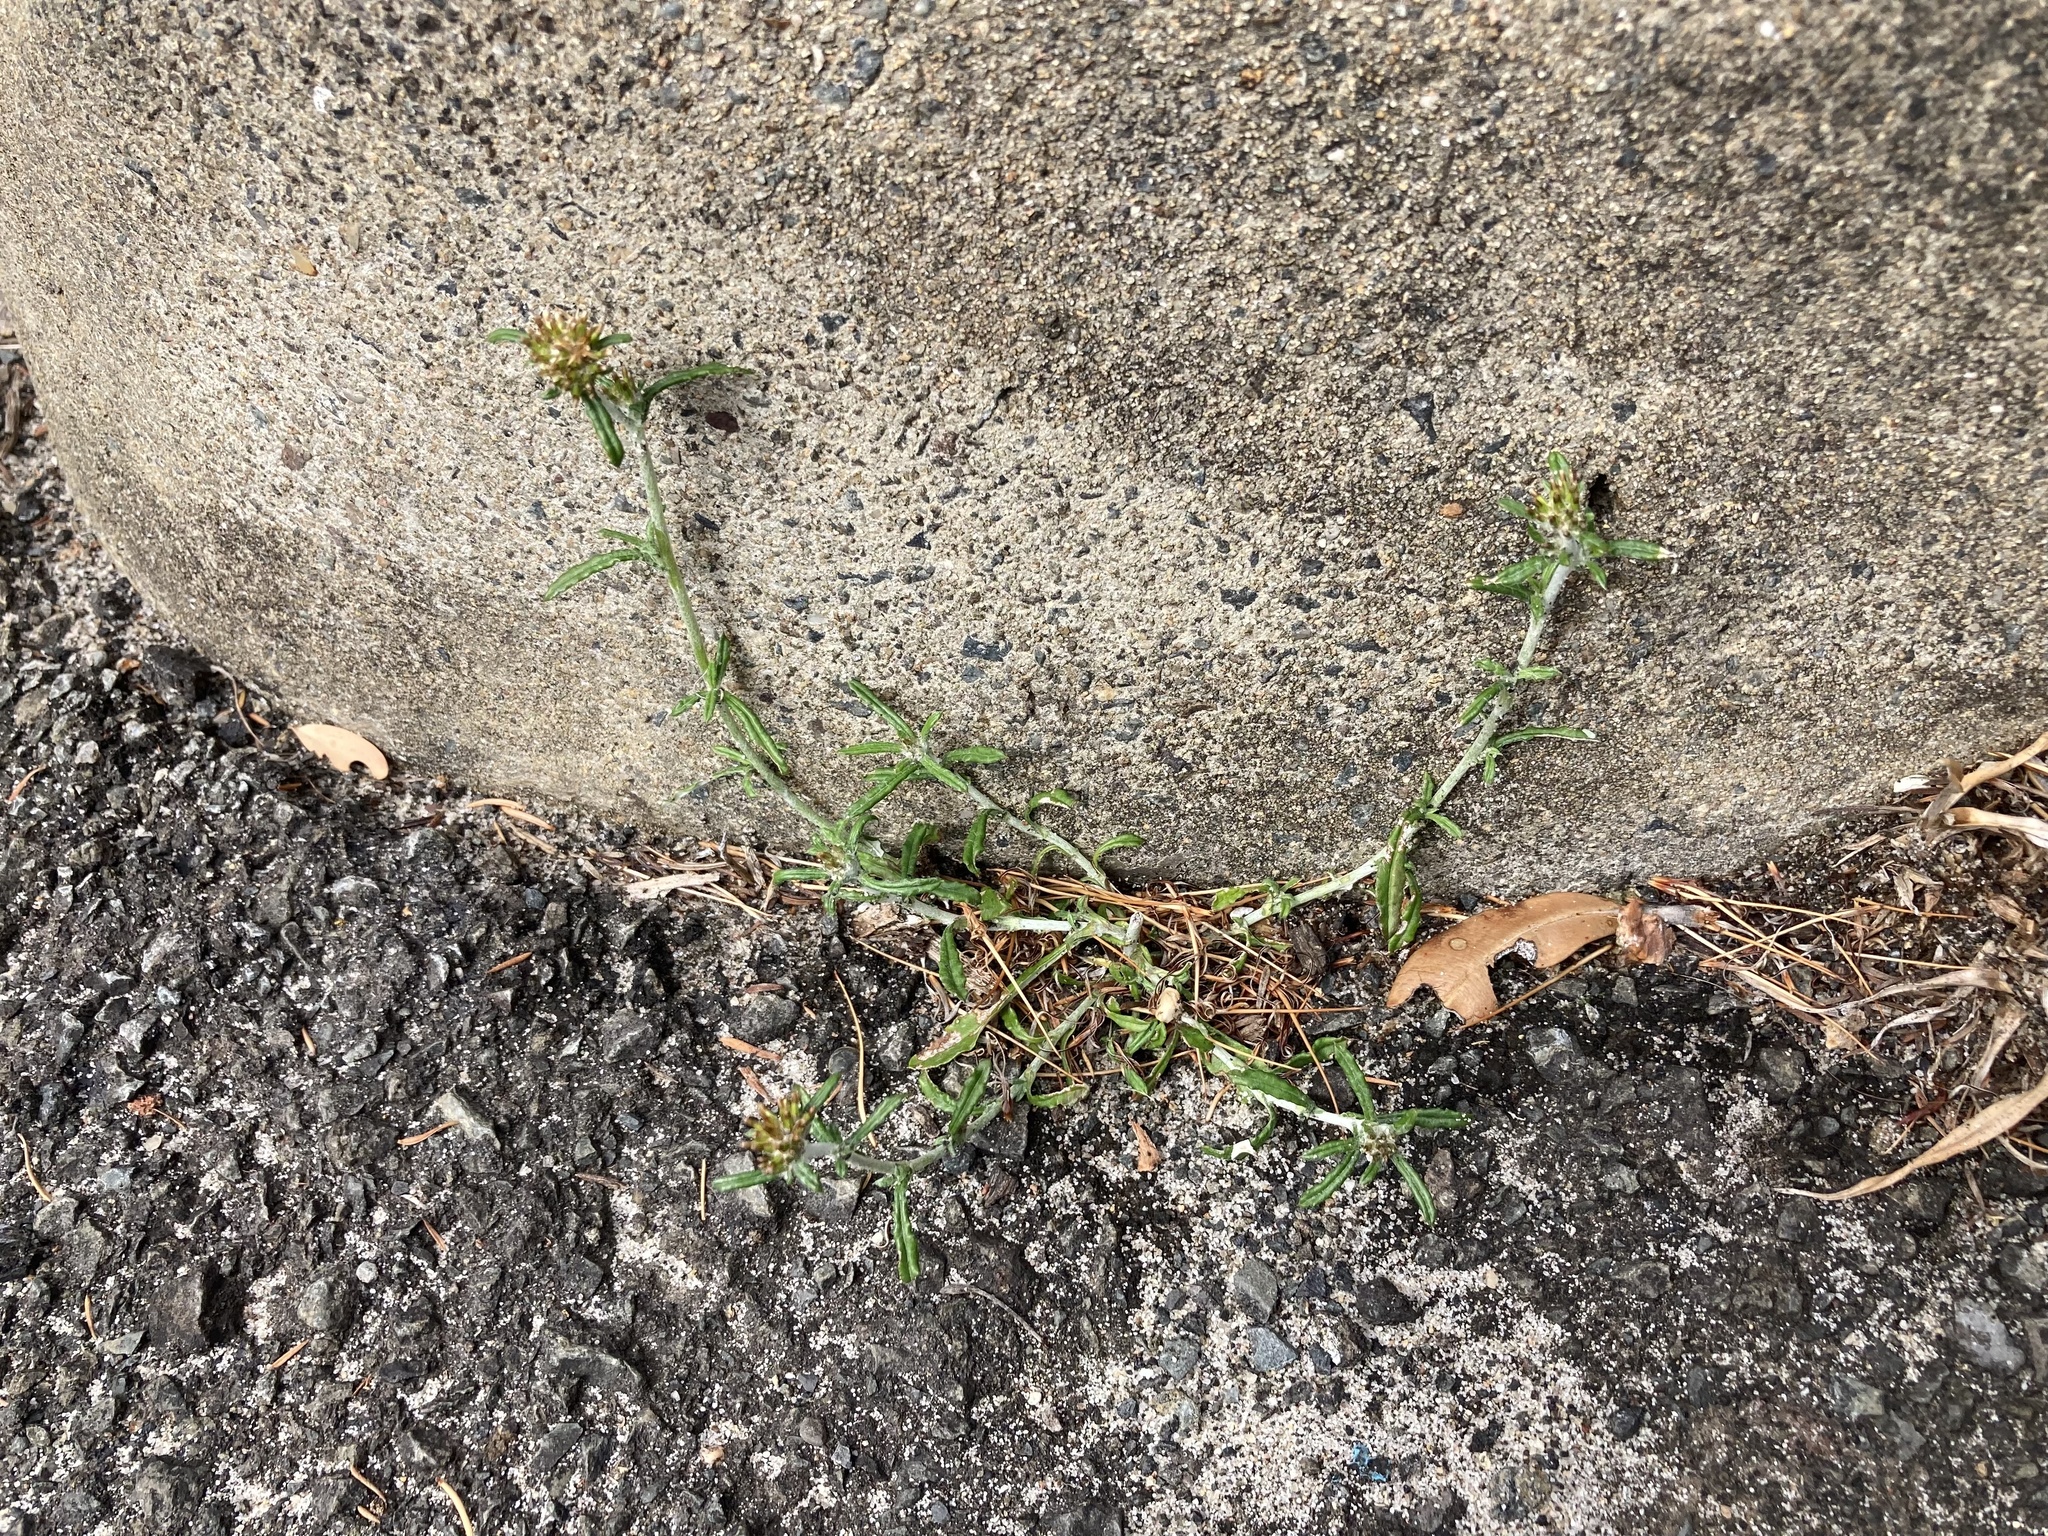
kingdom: Plantae
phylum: Tracheophyta
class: Magnoliopsida
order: Asterales
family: Asteraceae
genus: Euchiton
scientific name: Euchiton sphaericus
